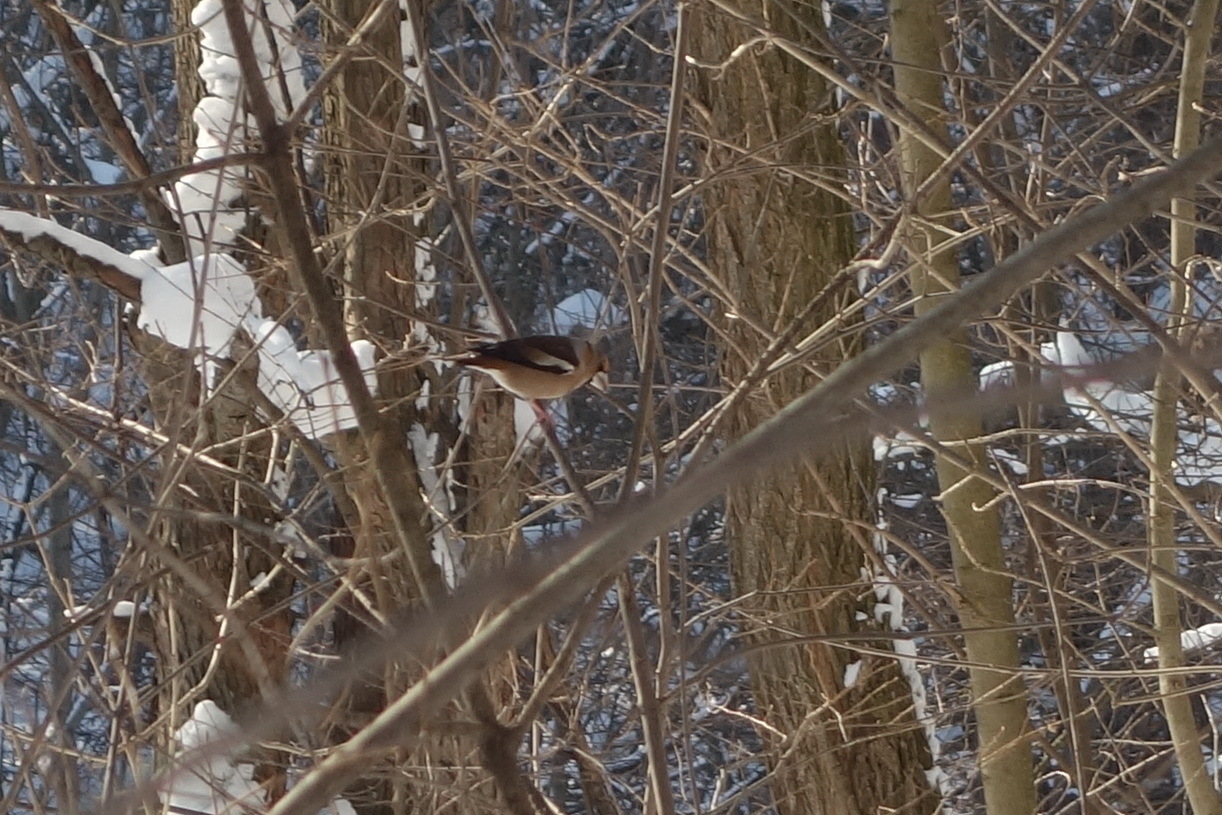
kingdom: Animalia
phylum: Chordata
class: Aves
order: Passeriformes
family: Fringillidae
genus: Coccothraustes
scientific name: Coccothraustes coccothraustes
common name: Hawfinch
